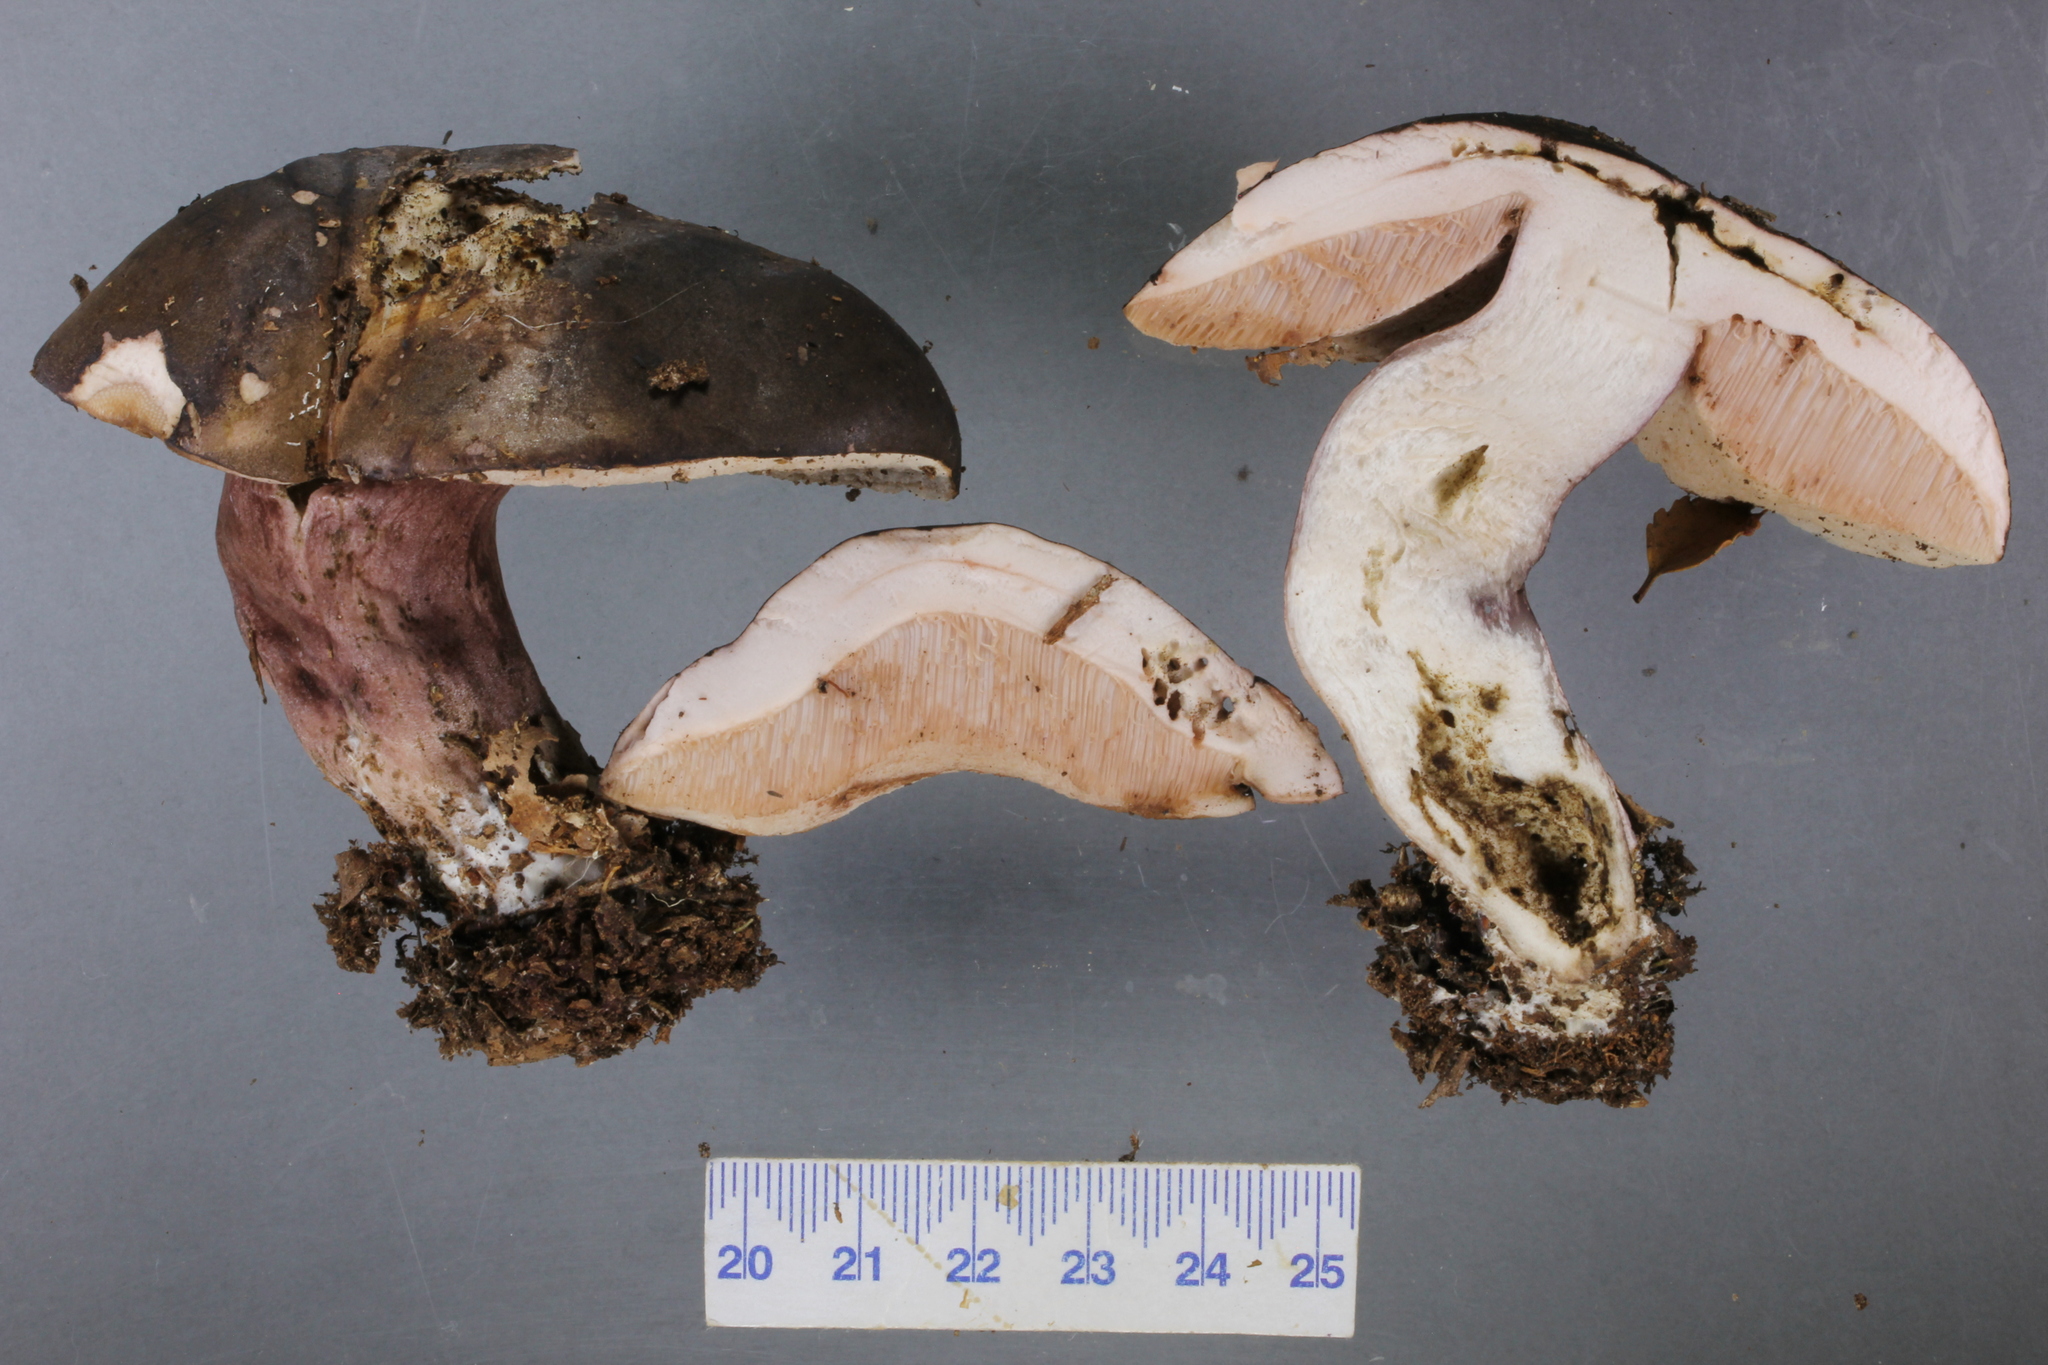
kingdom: Fungi
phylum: Basidiomycota
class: Agaricomycetes
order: Boletales
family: Boletaceae
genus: Porphyrellus
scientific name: Porphyrellus formosus
